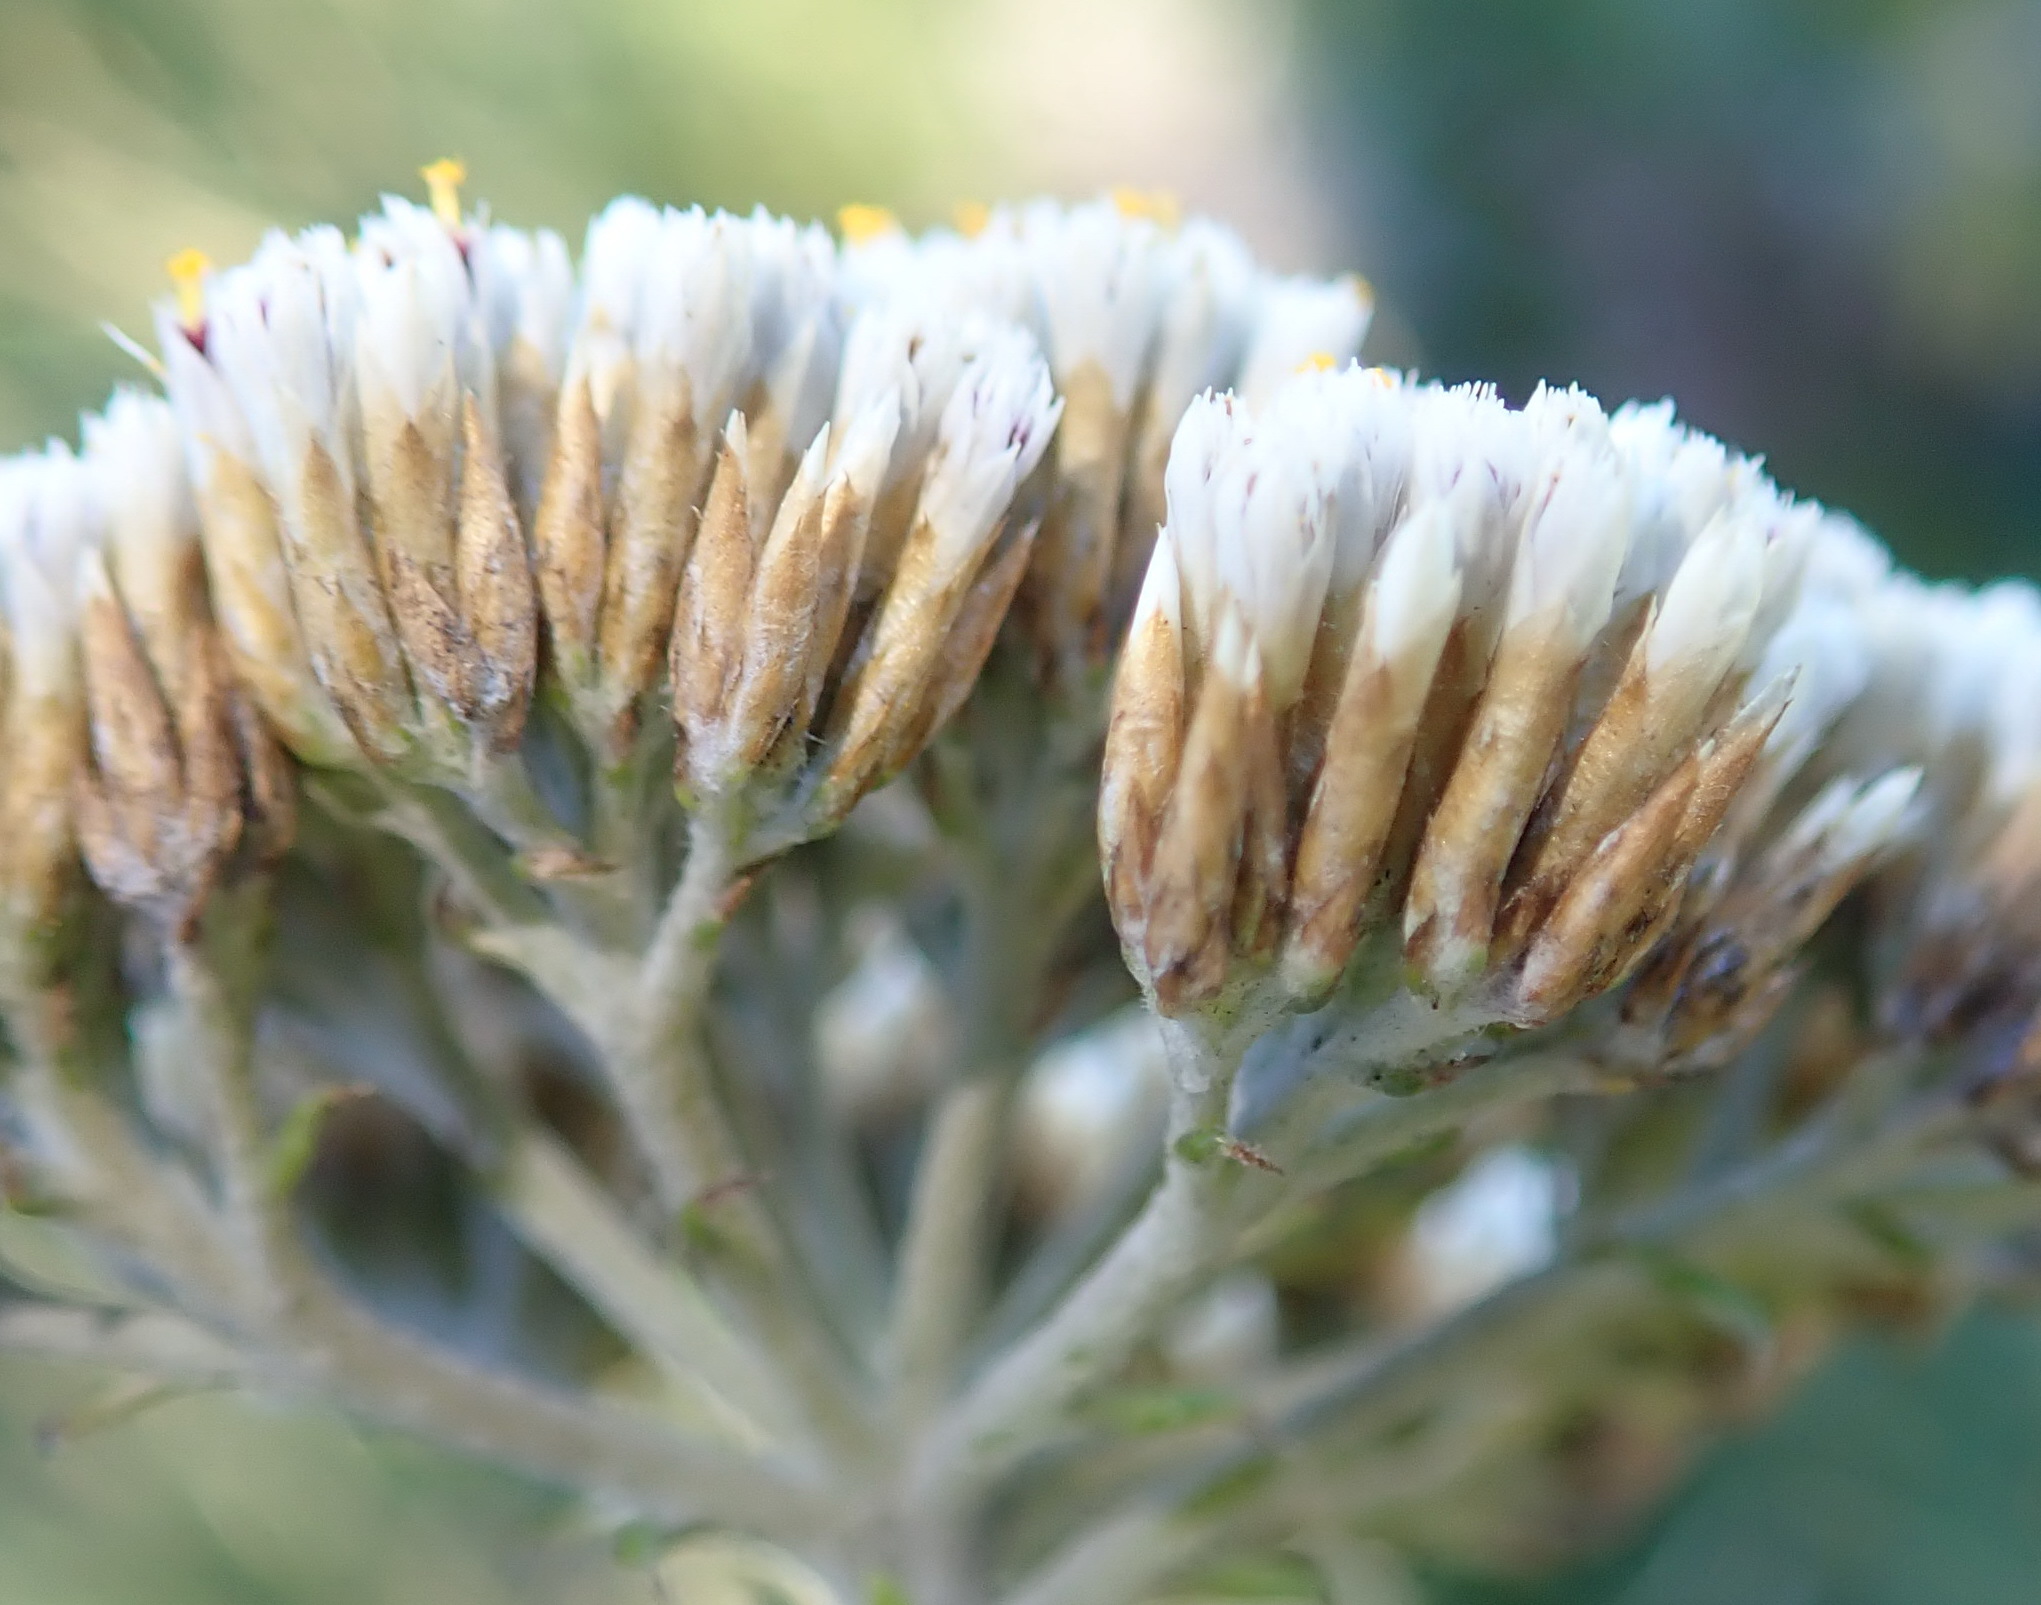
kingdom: Plantae
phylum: Tracheophyta
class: Magnoliopsida
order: Asterales
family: Asteraceae
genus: Metalasia
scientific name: Metalasia muricata
